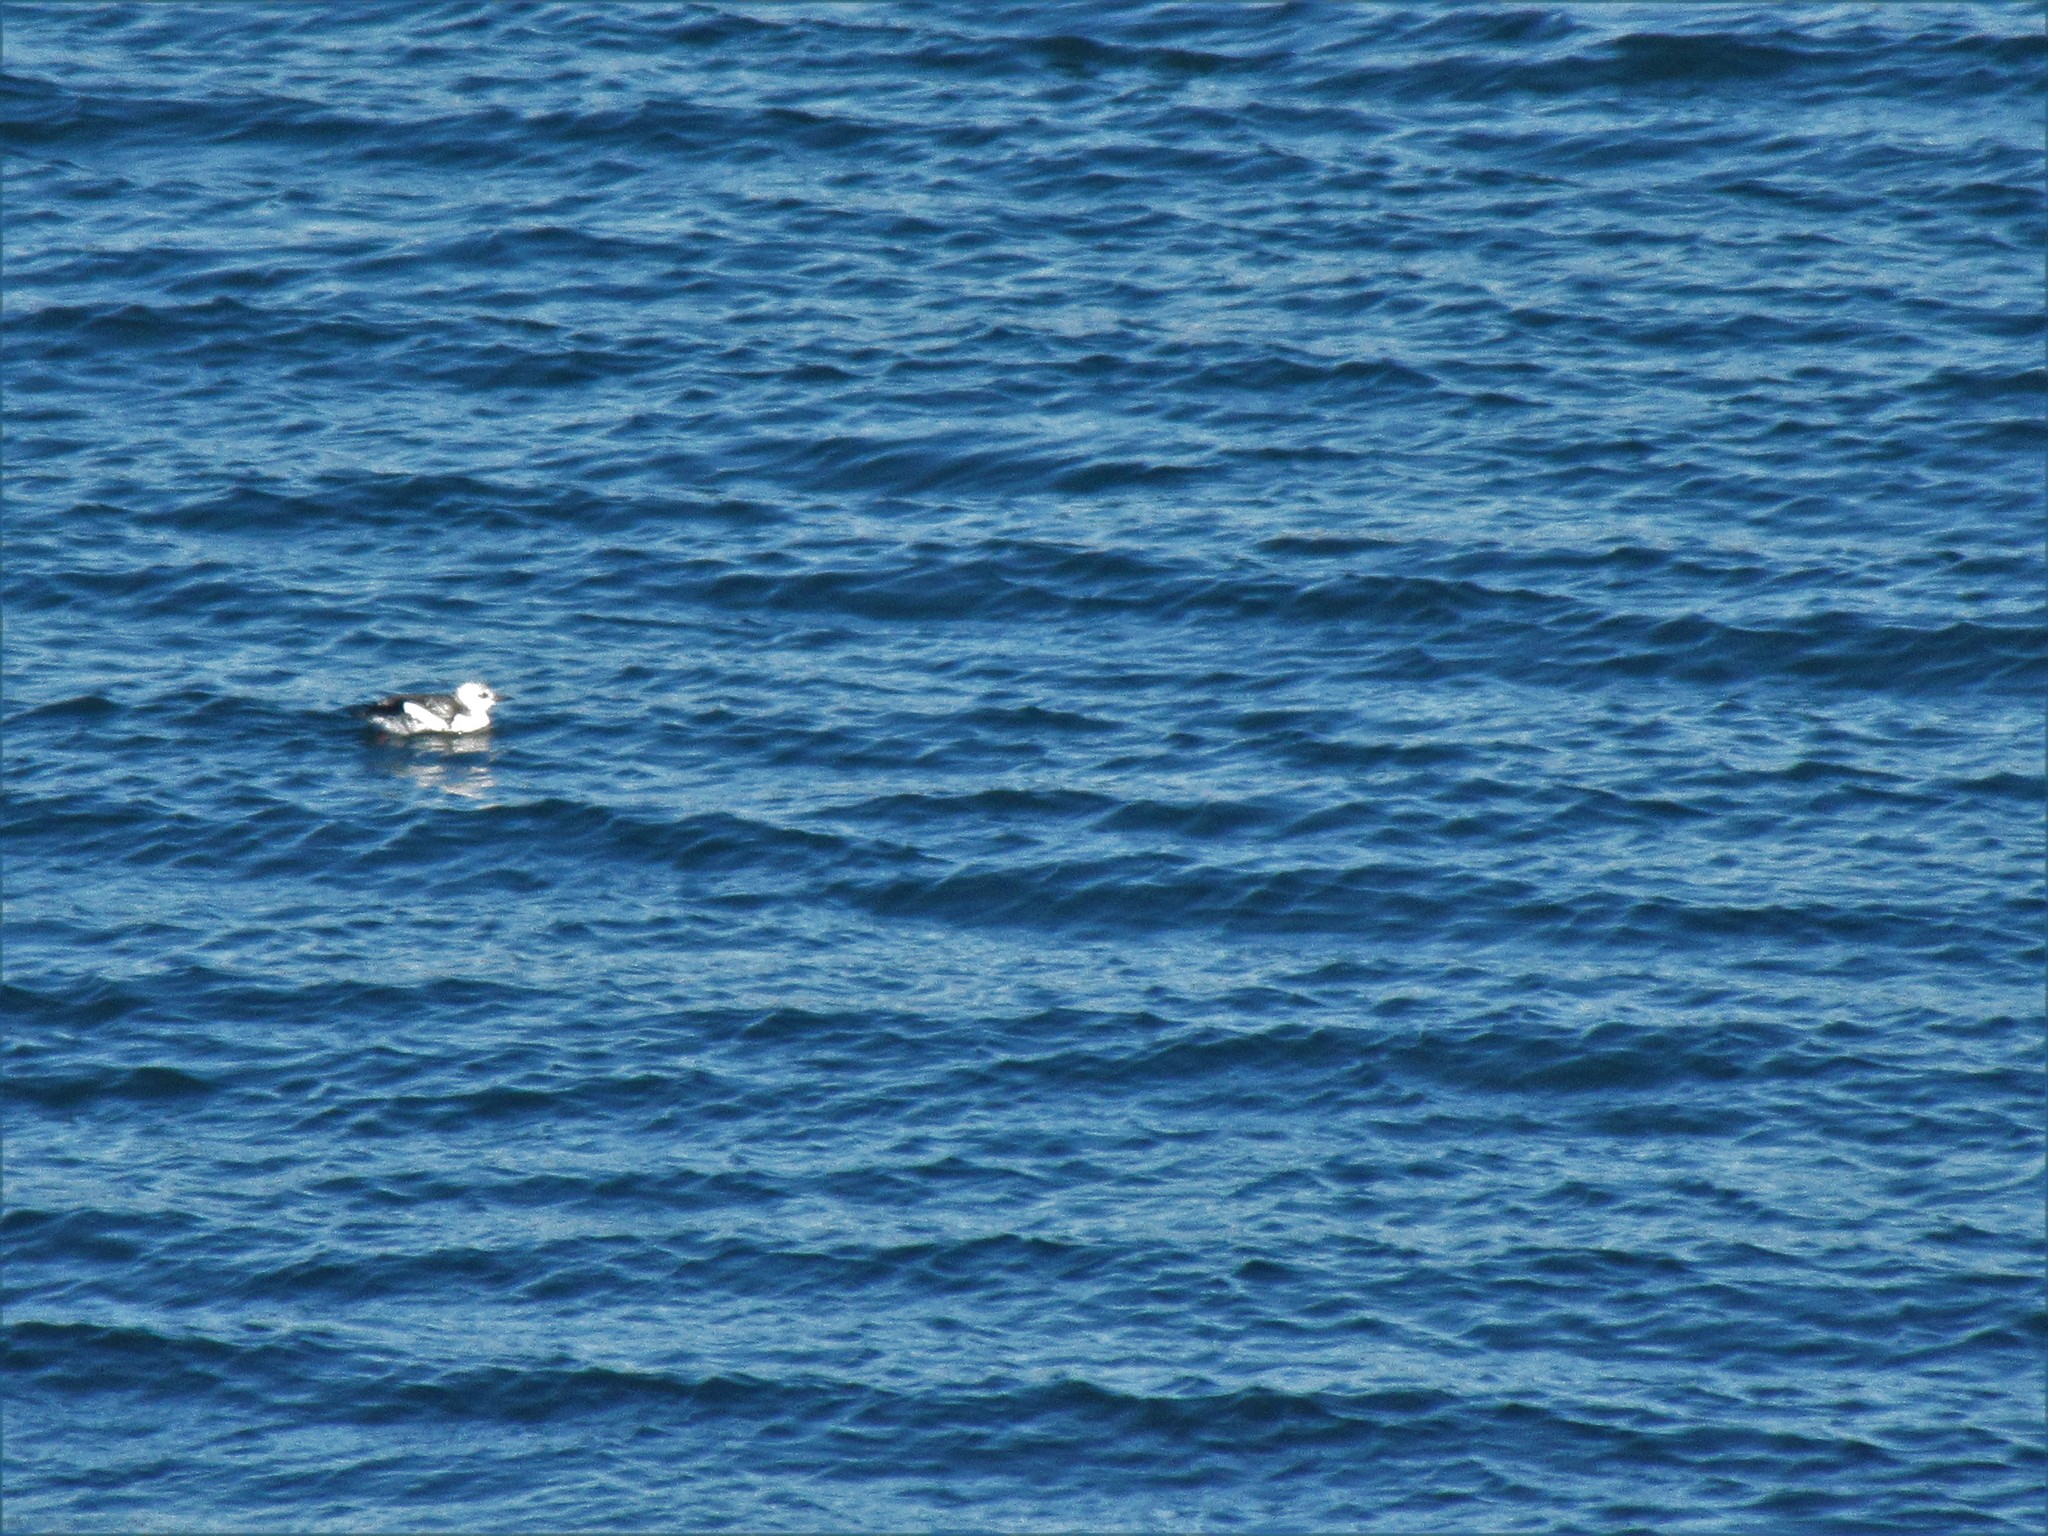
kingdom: Animalia
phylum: Chordata
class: Aves
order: Charadriiformes
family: Alcidae
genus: Cepphus
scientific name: Cepphus grylle
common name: Black guillemot
